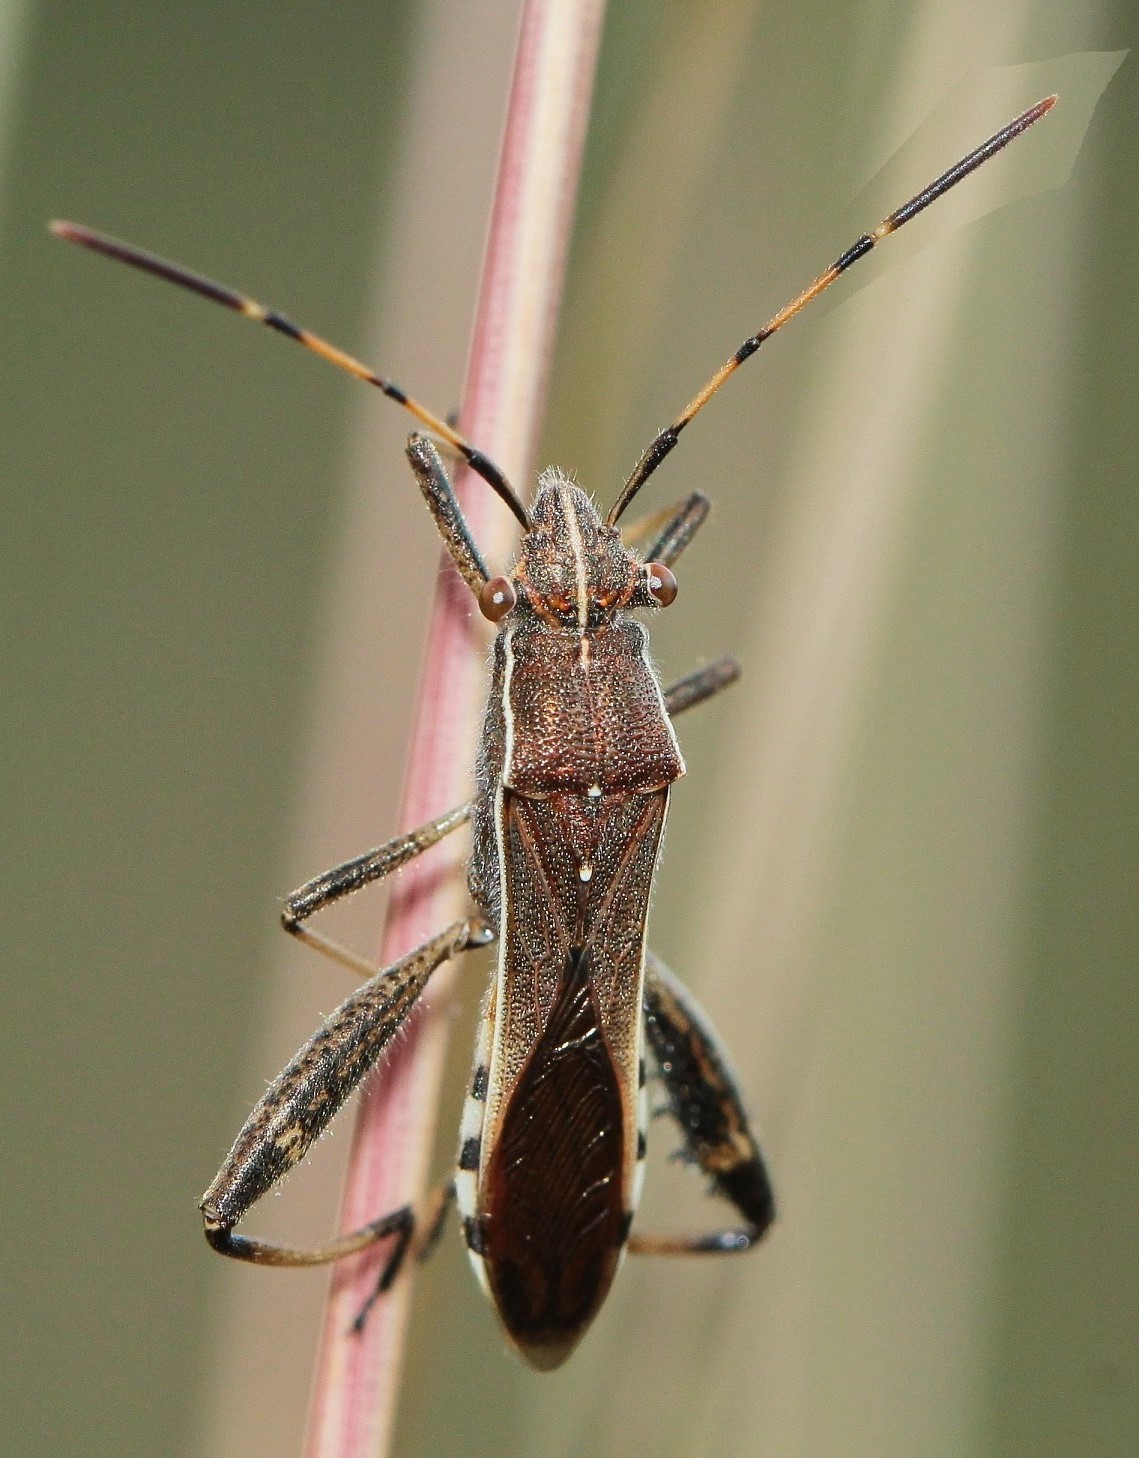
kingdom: Animalia
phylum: Arthropoda
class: Insecta
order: Hemiptera
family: Alydidae
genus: Camptopus
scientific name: Camptopus lateralis
